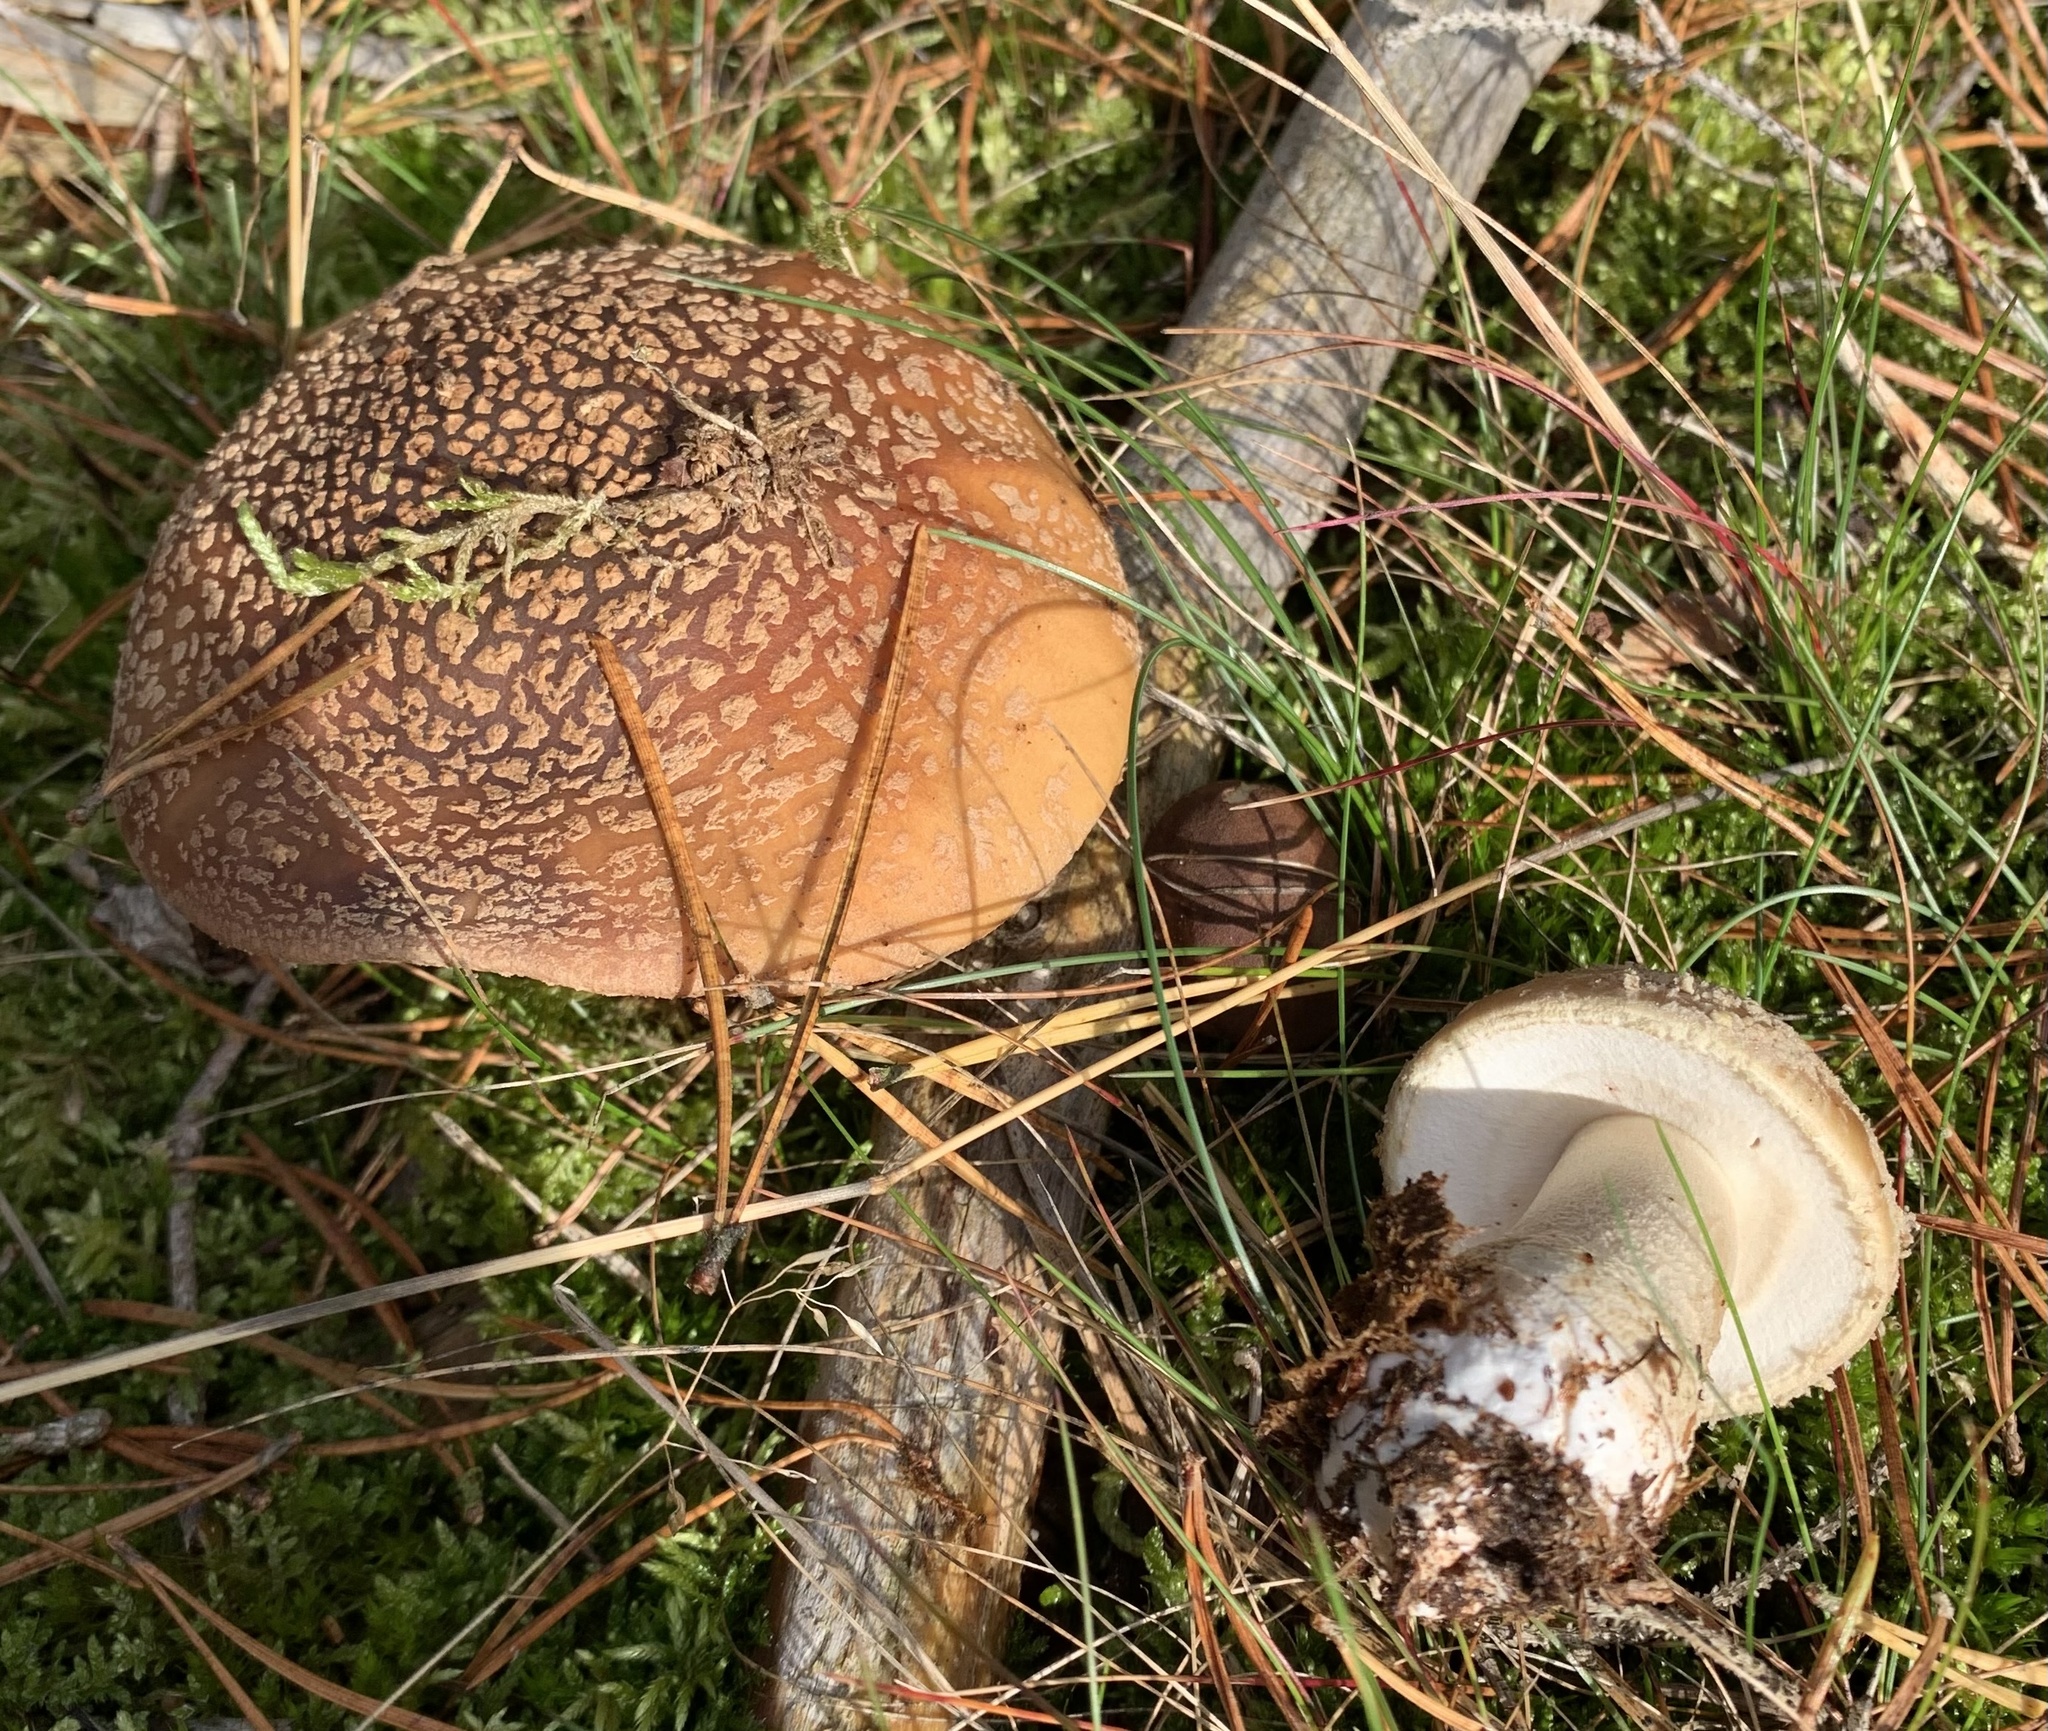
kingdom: Fungi
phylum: Basidiomycota
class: Agaricomycetes
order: Agaricales
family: Amanitaceae
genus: Amanita
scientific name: Amanita rubescens
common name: Blusher
